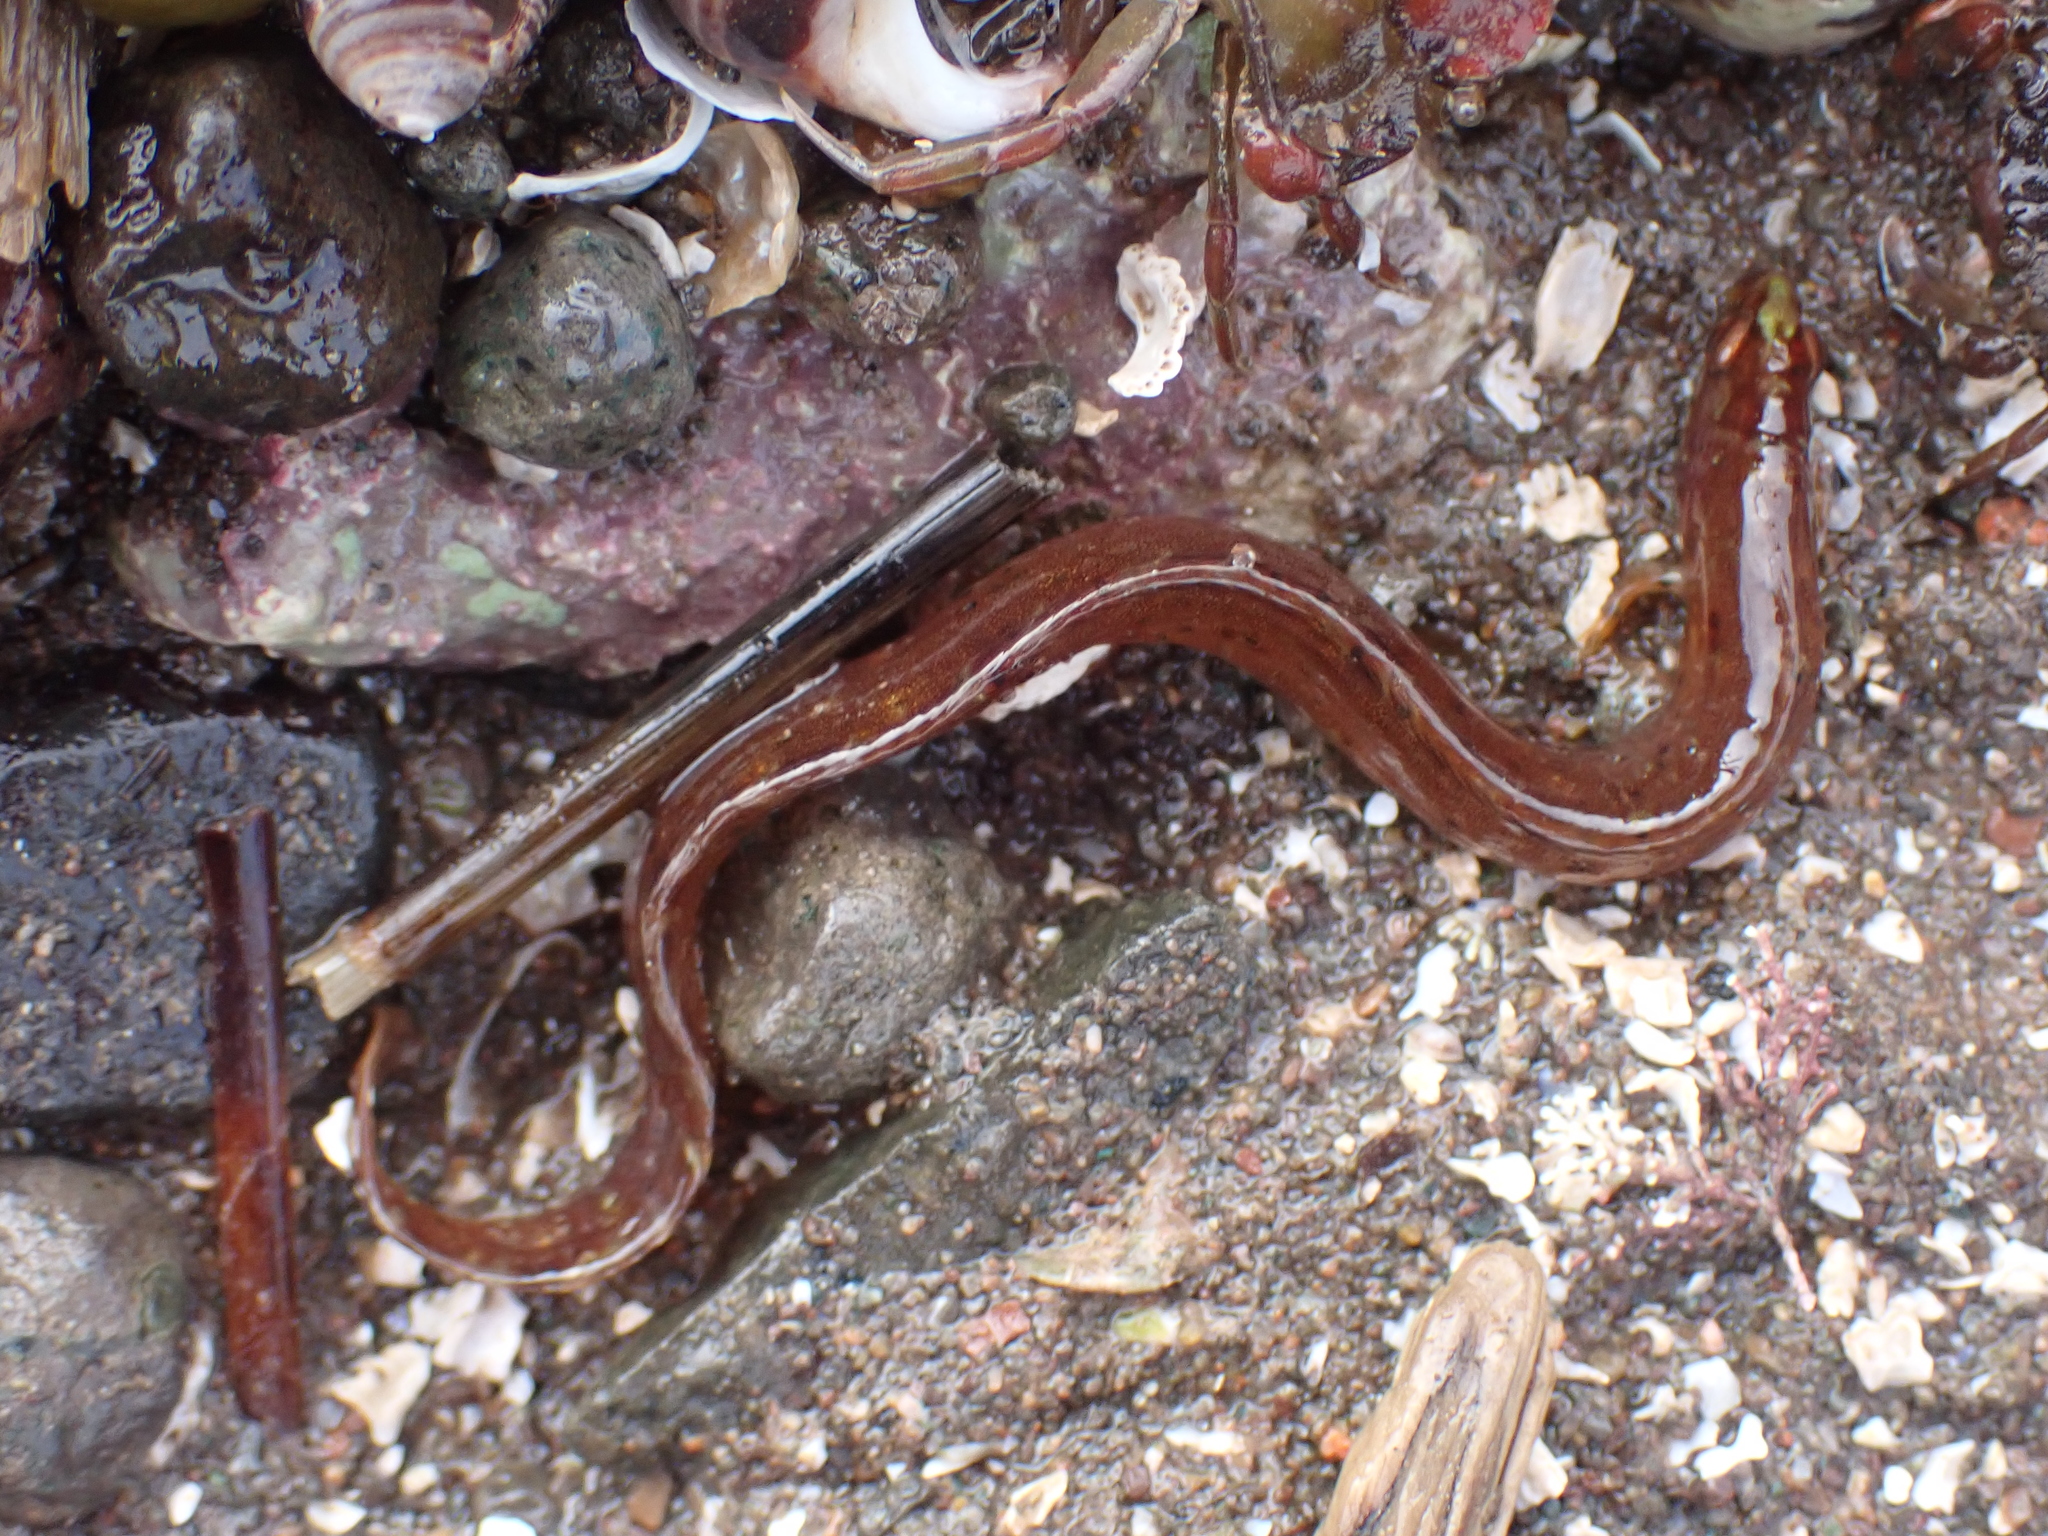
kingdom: Animalia
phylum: Chordata
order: Perciformes
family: Pholidae
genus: Pholis
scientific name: Pholis gunnellus
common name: Butterfish
